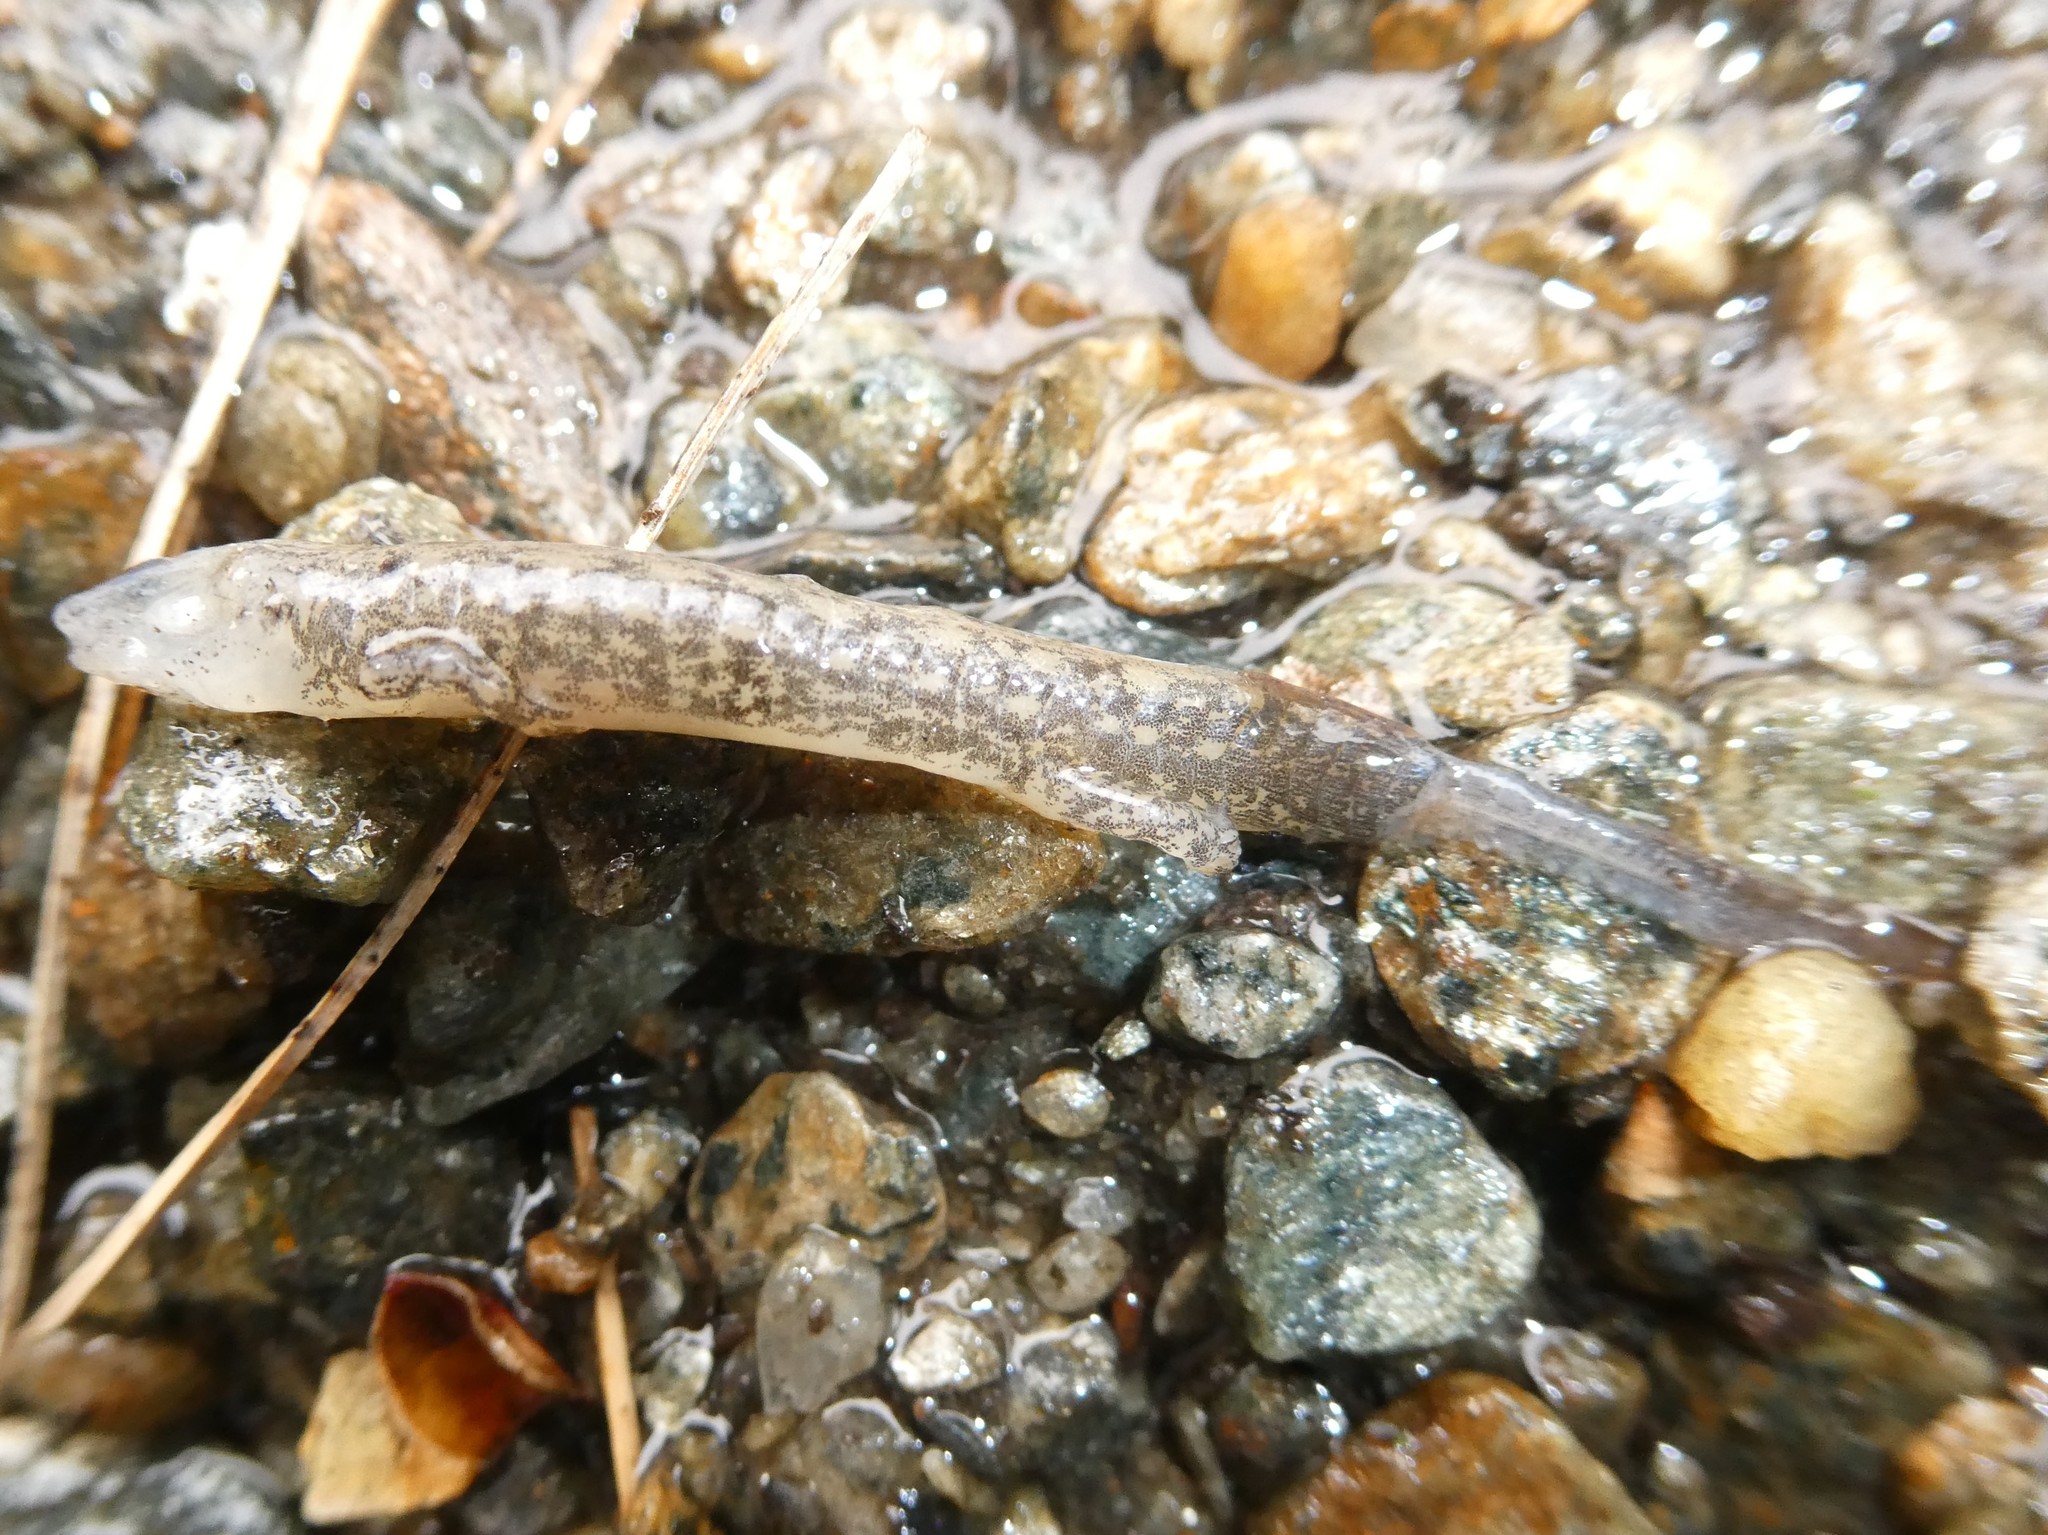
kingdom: Animalia
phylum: Chordata
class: Amphibia
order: Caudata
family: Plethodontidae
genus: Eurycea
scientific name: Eurycea bislineata
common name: Northern two-lined salamander
